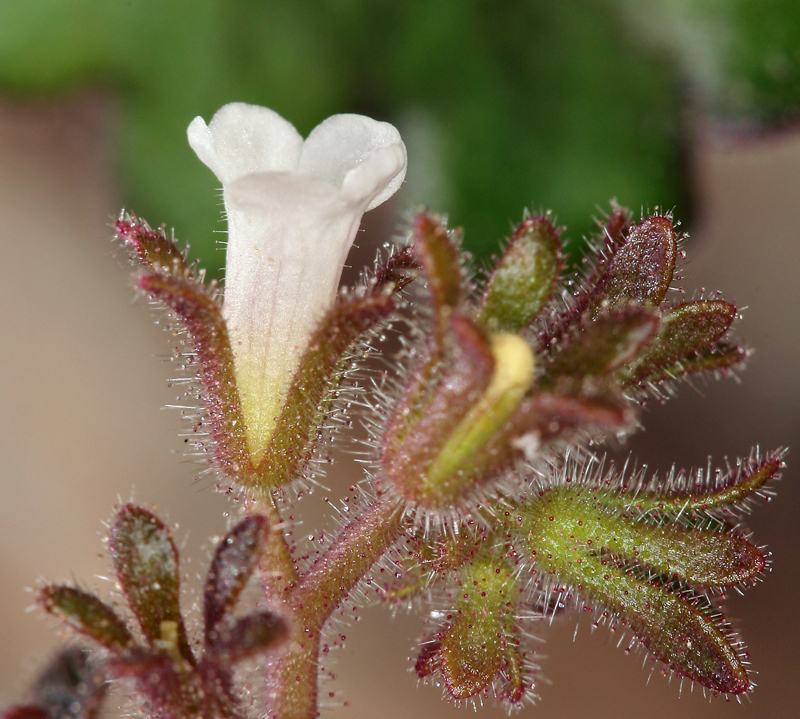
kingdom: Plantae
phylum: Tracheophyta
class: Magnoliopsida
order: Boraginales
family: Hydrophyllaceae
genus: Phacelia
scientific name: Phacelia rotundifolia
